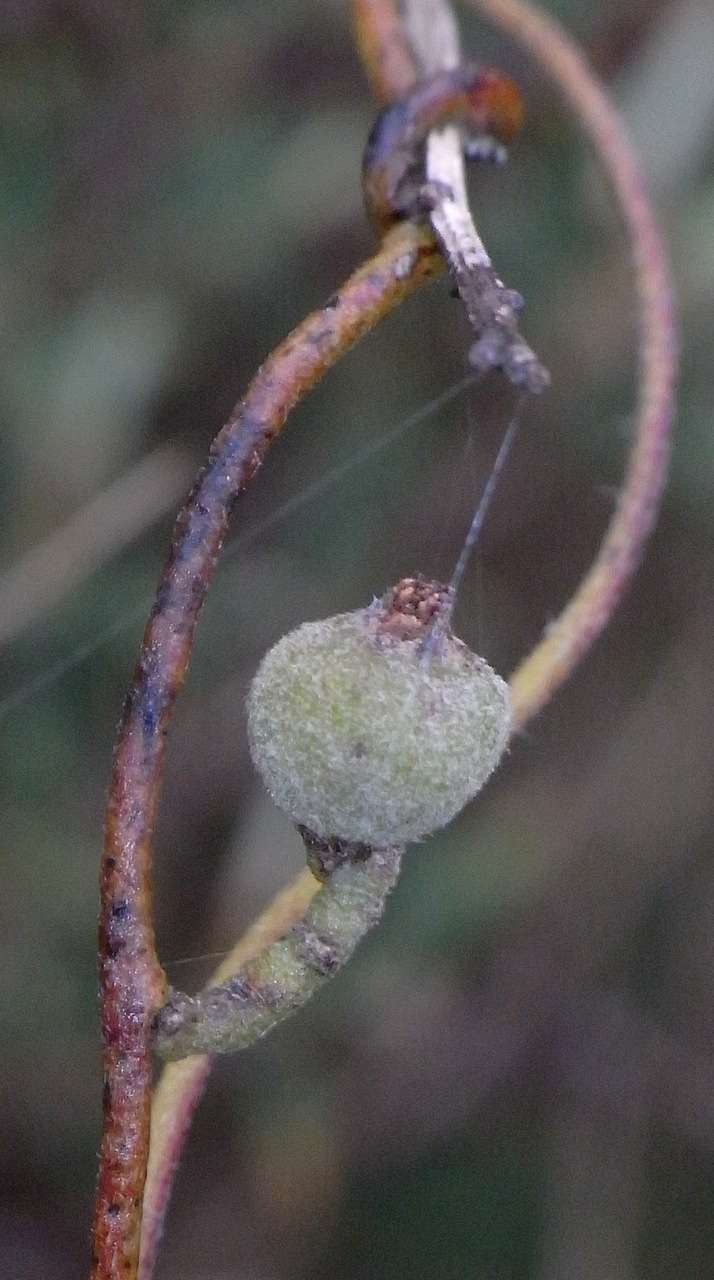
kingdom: Plantae
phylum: Tracheophyta
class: Magnoliopsida
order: Laurales
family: Lauraceae
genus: Cassytha
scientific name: Cassytha pubescens
